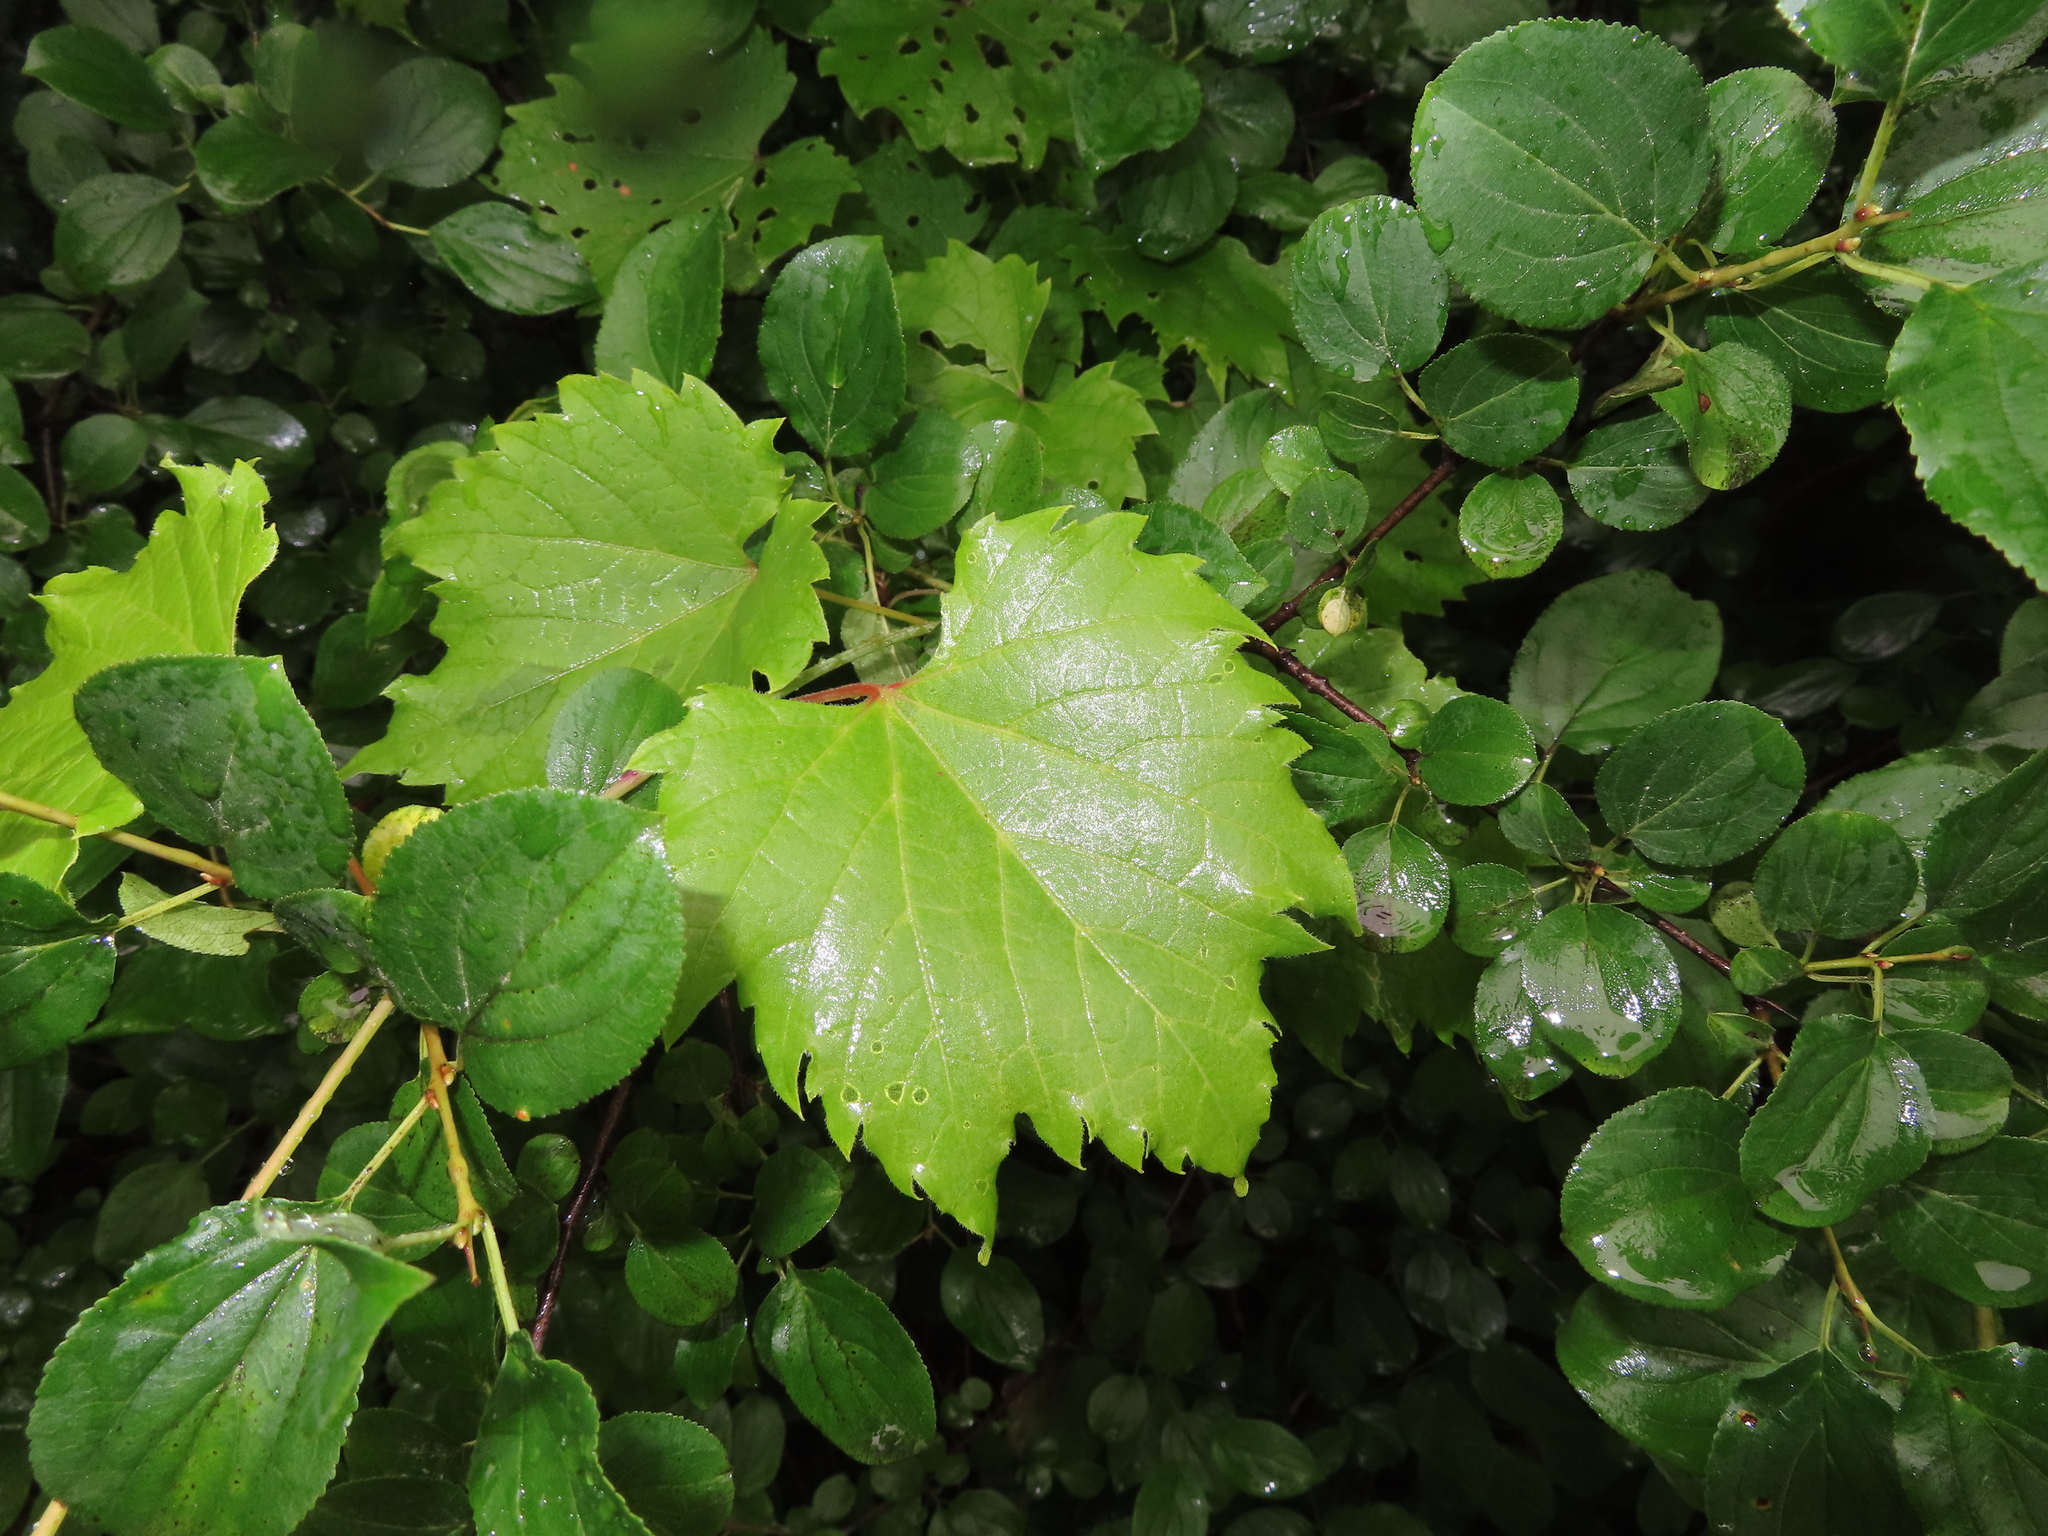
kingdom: Plantae
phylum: Tracheophyta
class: Magnoliopsida
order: Vitales
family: Vitaceae
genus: Vitis
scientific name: Vitis riparia
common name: Frost grape
